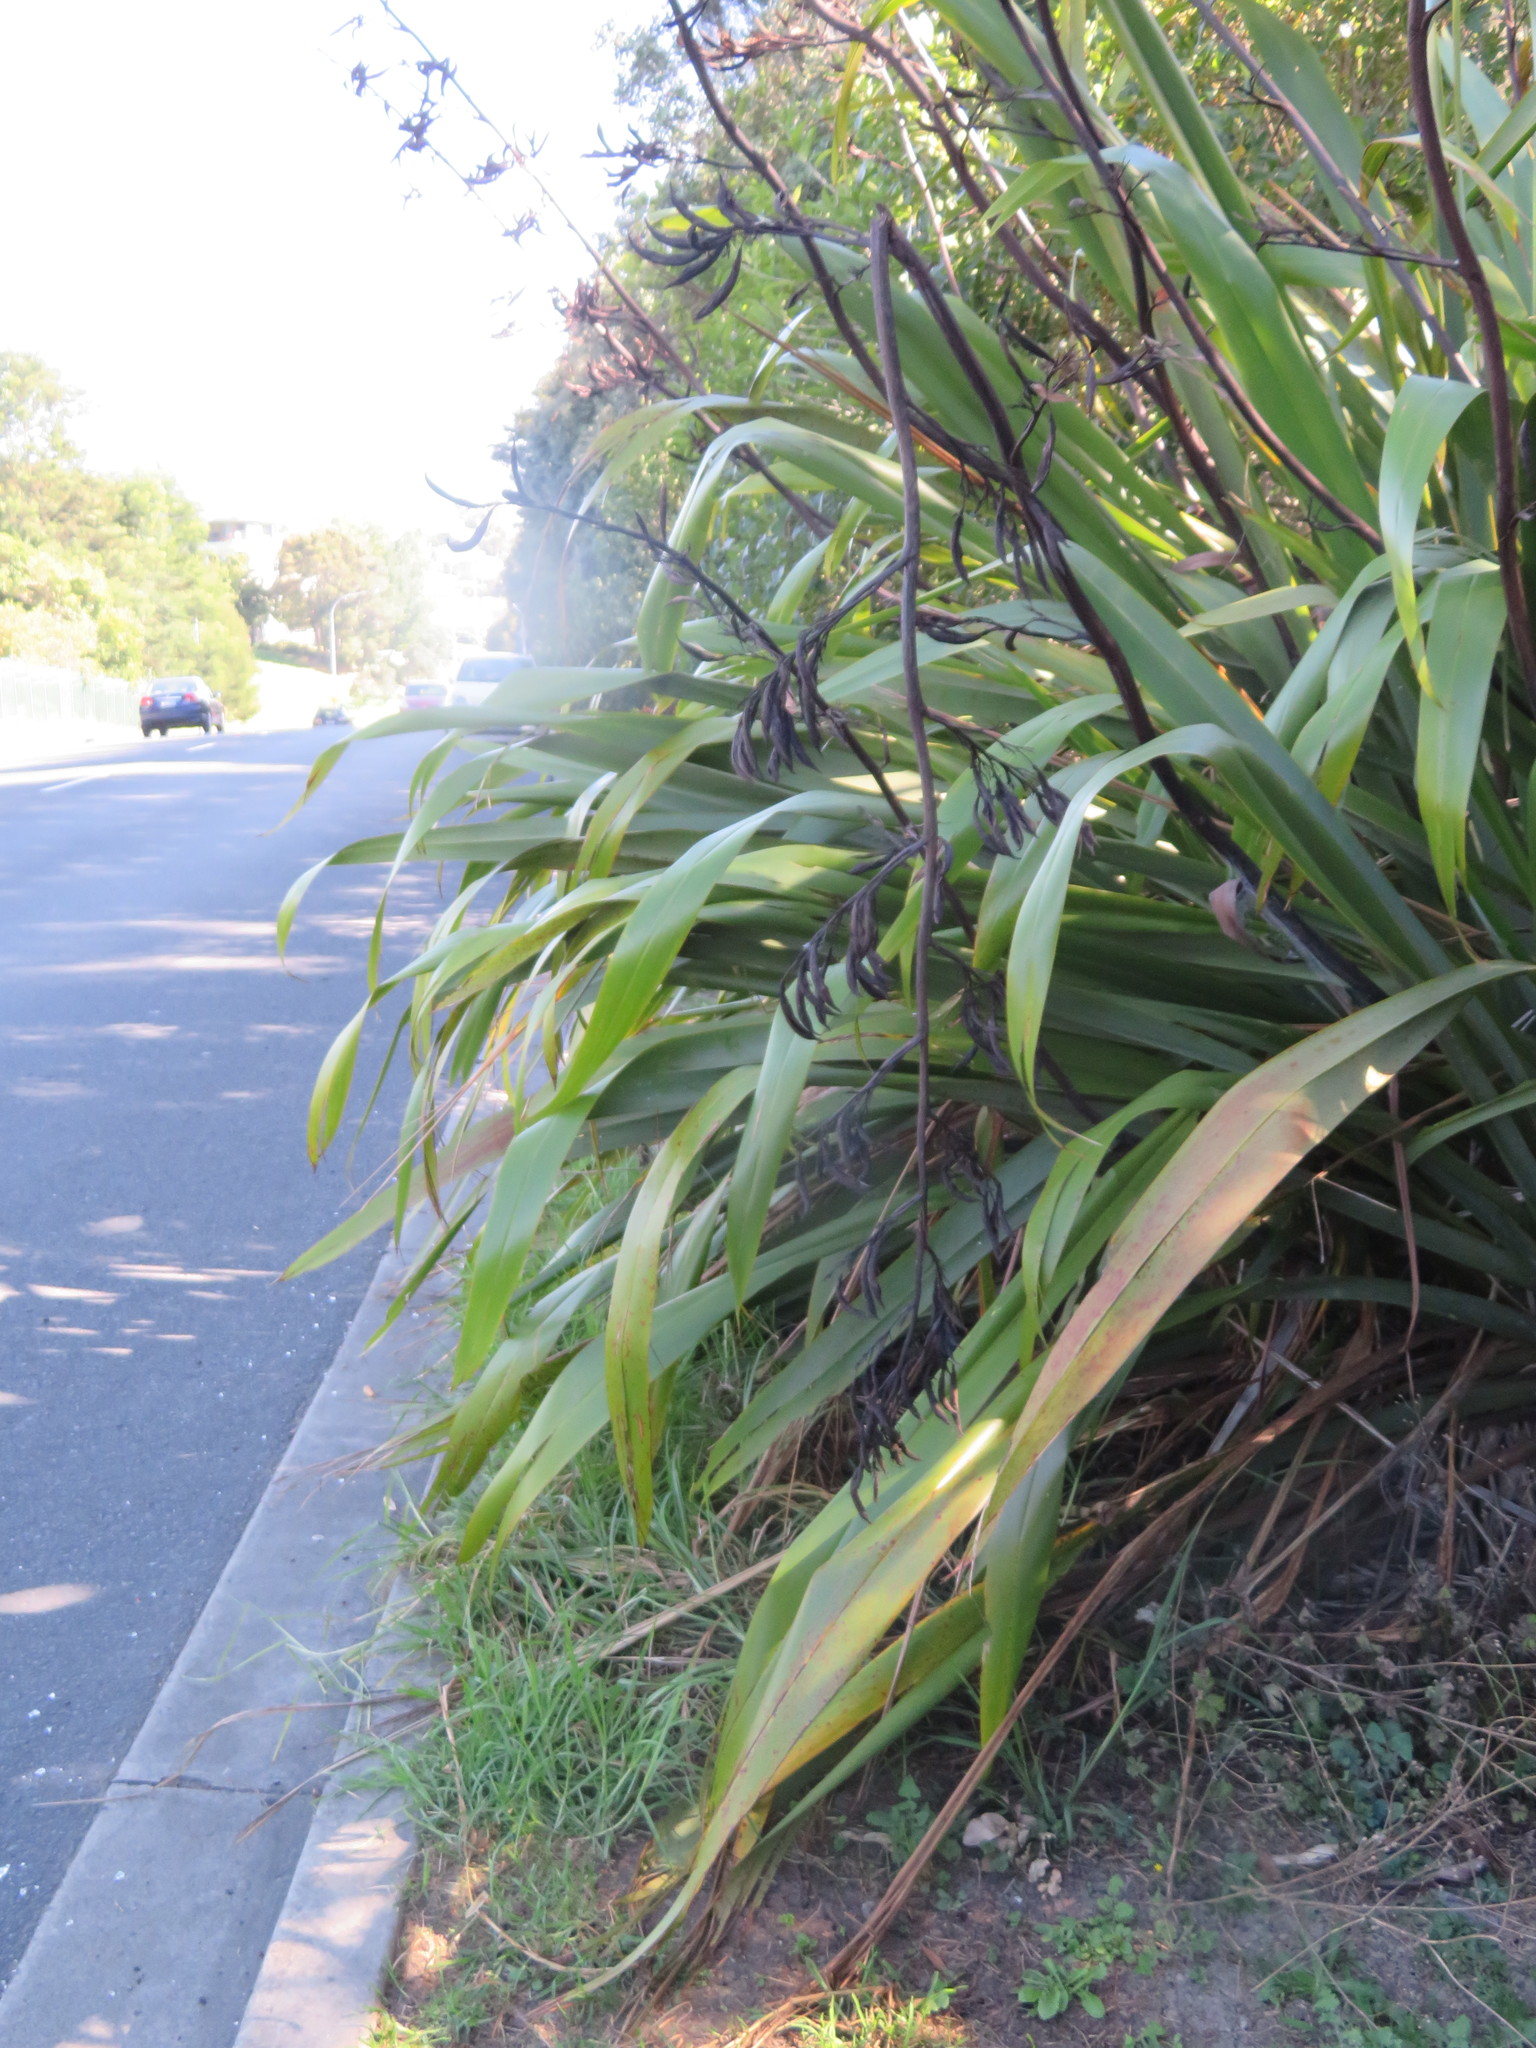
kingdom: Plantae
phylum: Tracheophyta
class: Liliopsida
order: Asparagales
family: Asphodelaceae
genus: Phormium
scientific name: Phormium tenax
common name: New zealand flax
